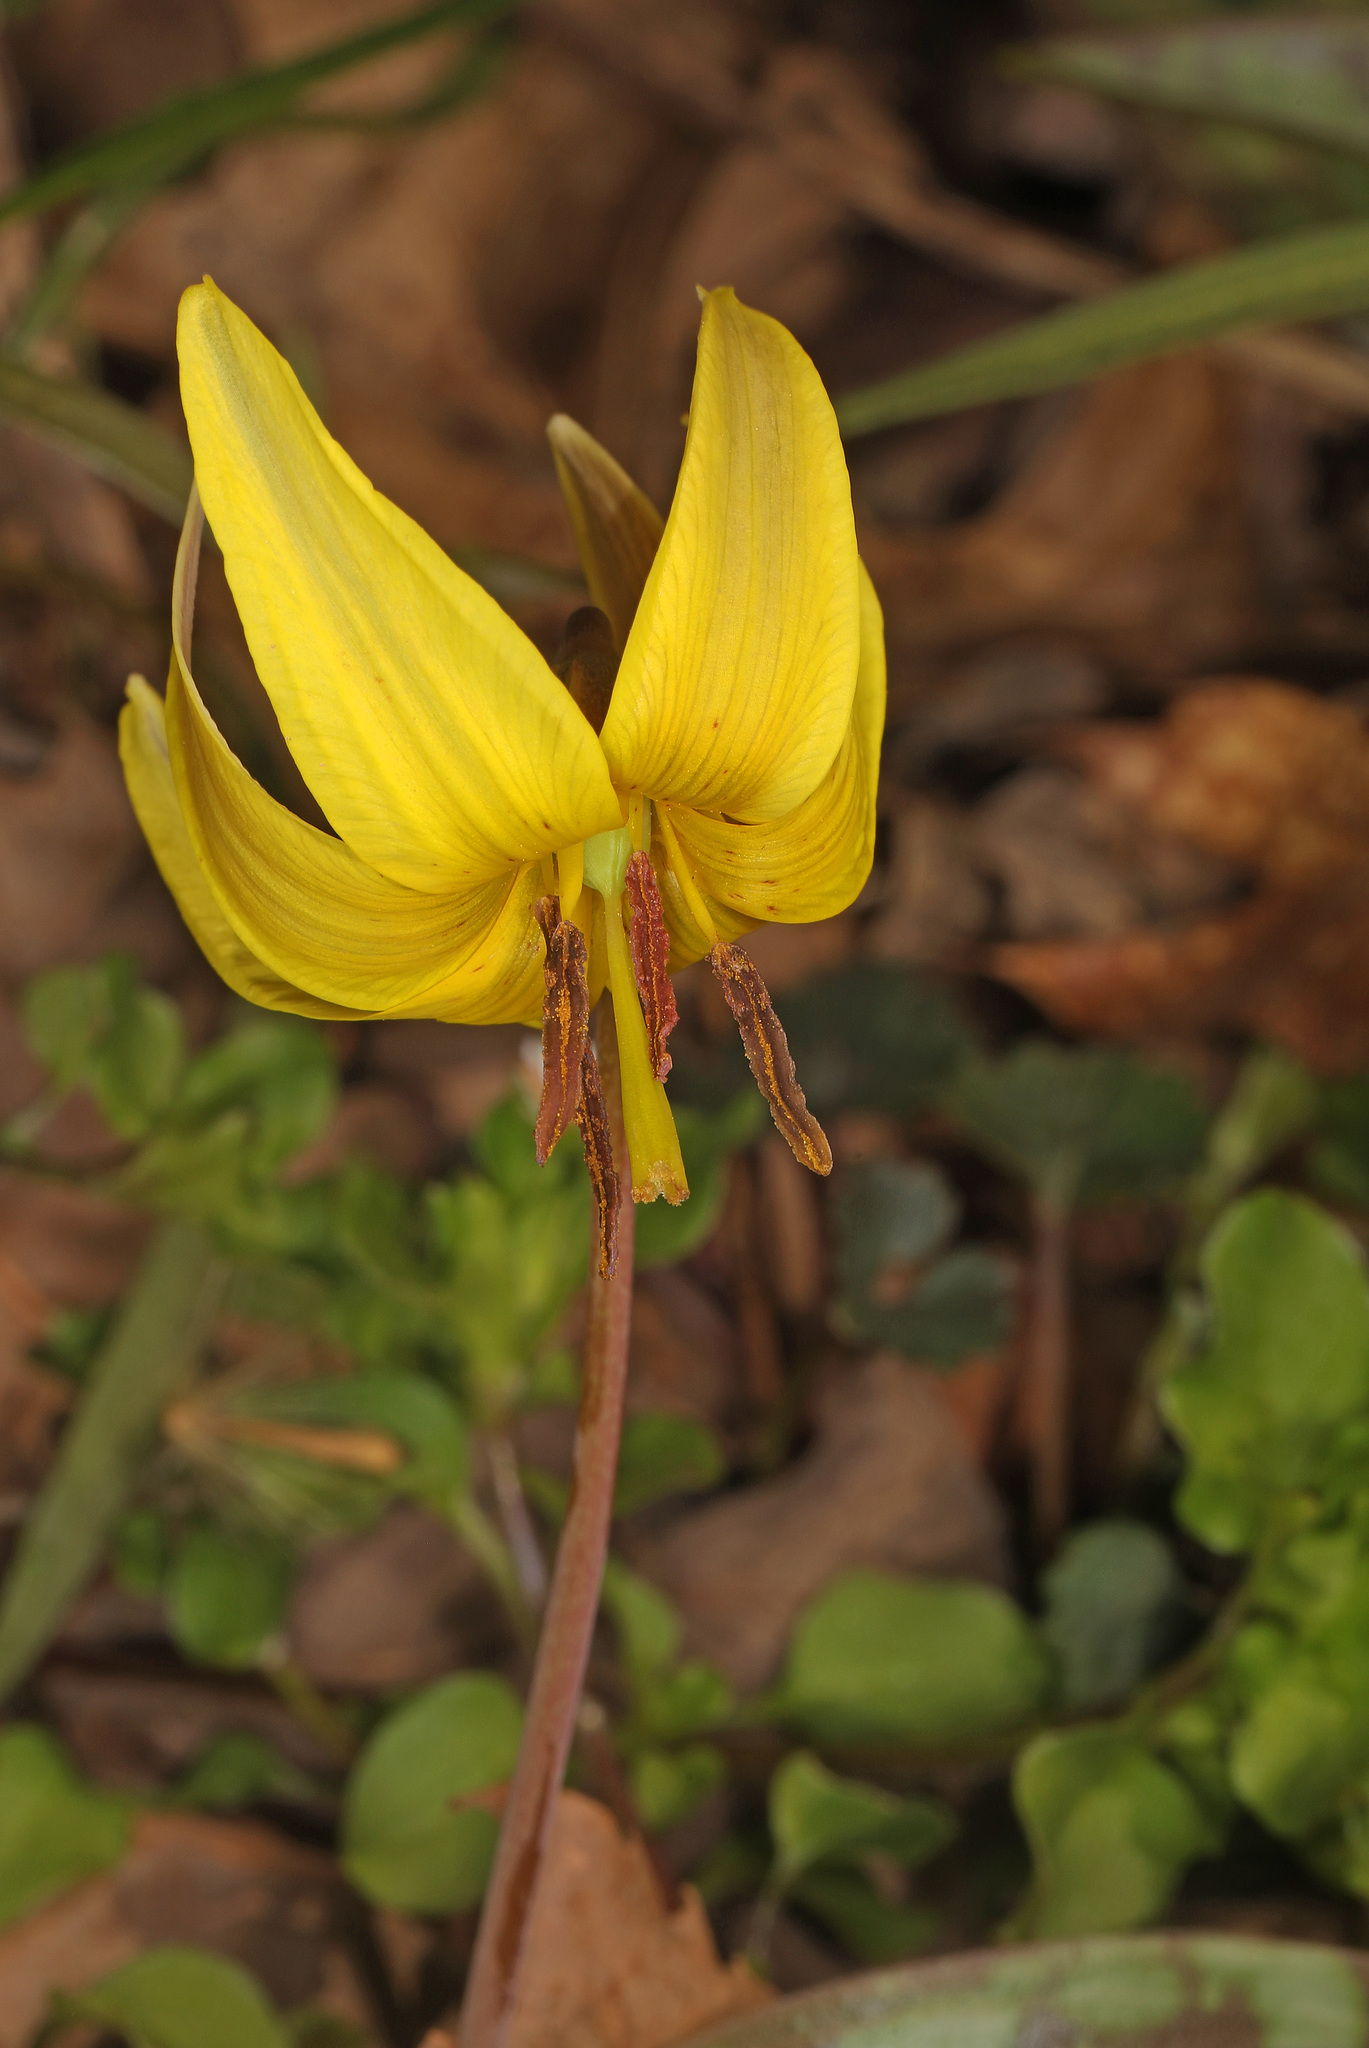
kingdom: Plantae
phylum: Tracheophyta
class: Liliopsida
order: Liliales
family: Liliaceae
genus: Erythronium
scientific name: Erythronium americanum
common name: Yellow adder's-tongue
